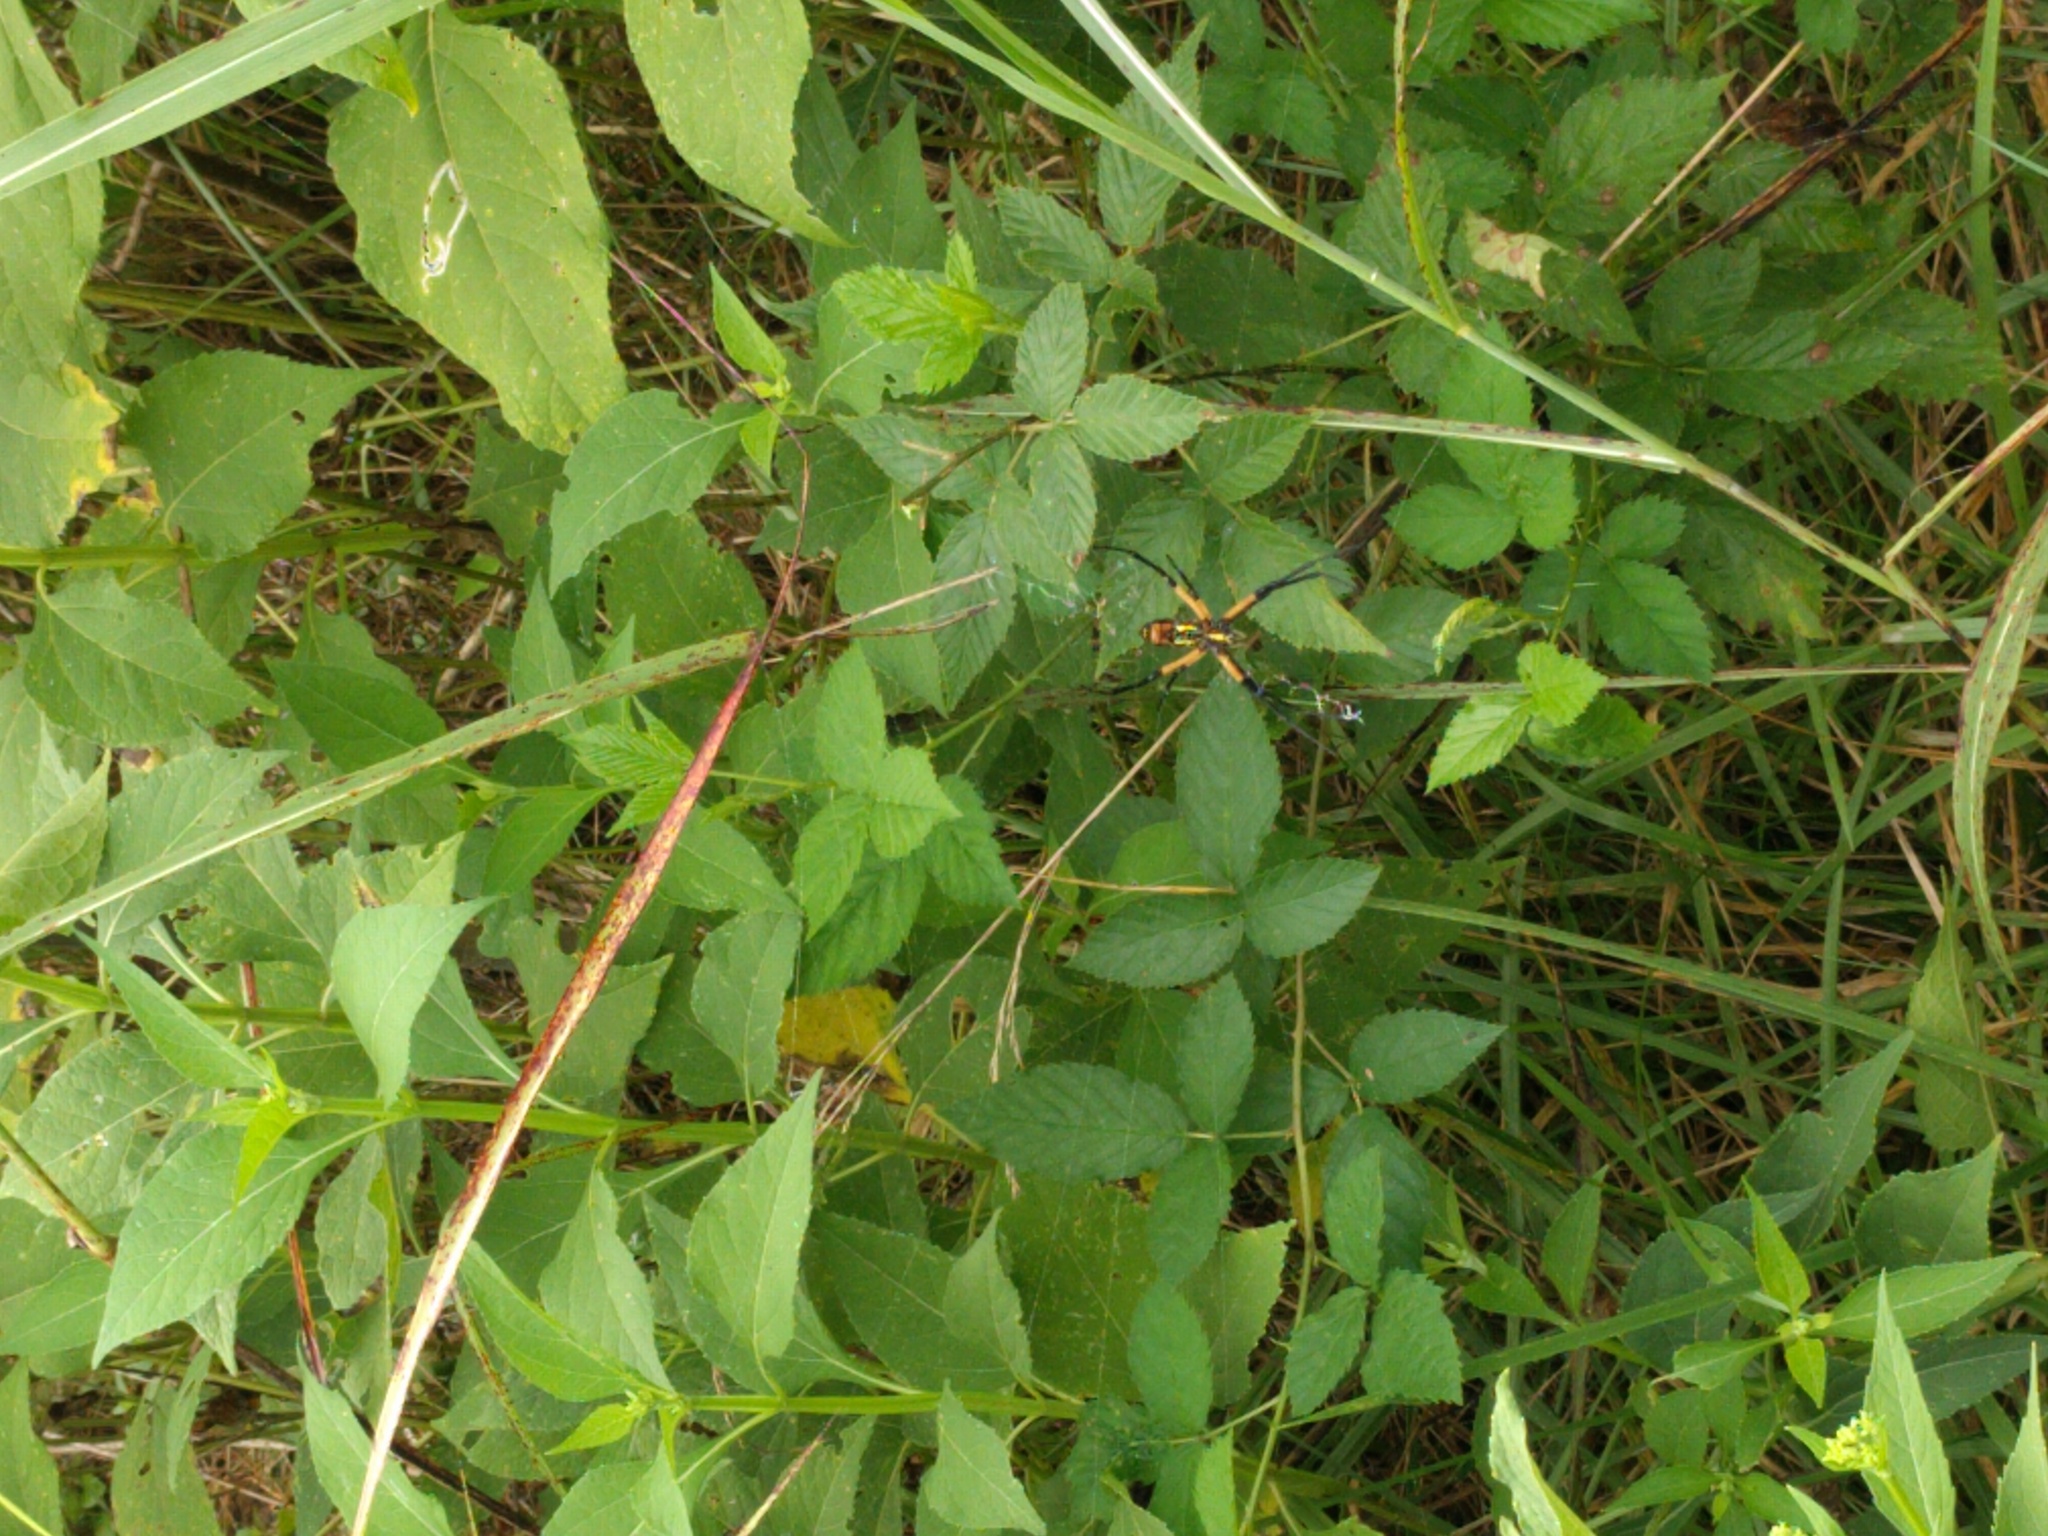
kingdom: Animalia
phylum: Arthropoda
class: Arachnida
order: Araneae
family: Araneidae
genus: Argiope
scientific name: Argiope aurantia
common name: Orb weavers
